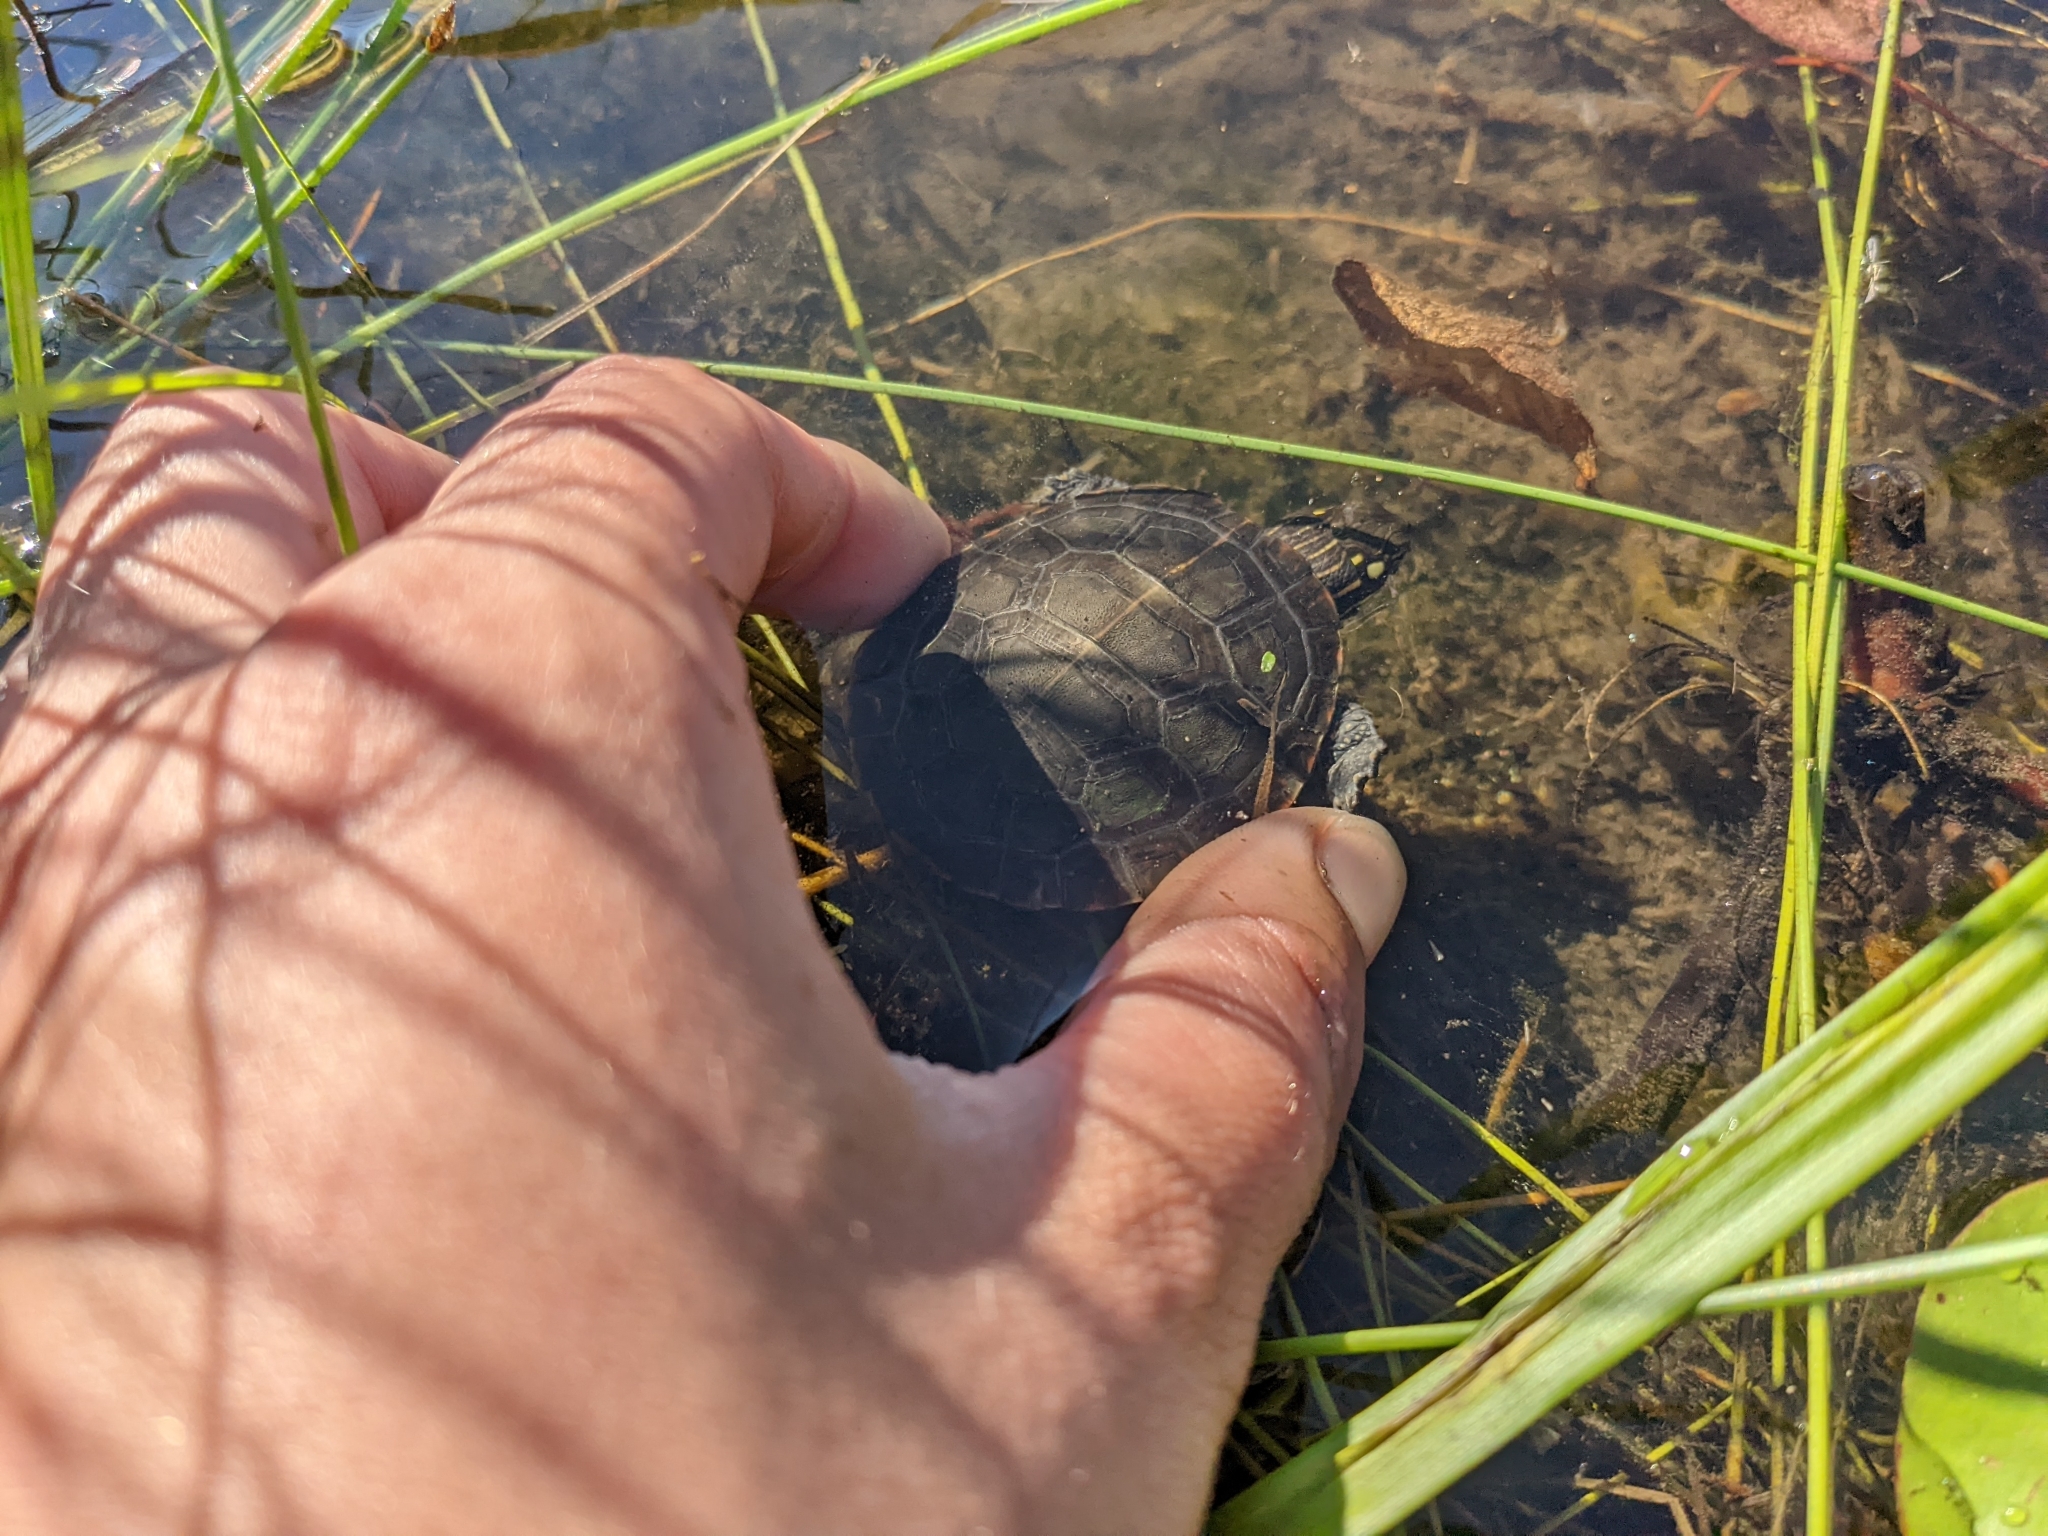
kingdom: Animalia
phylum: Chordata
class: Testudines
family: Emydidae
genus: Chrysemys
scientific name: Chrysemys picta
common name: Painted turtle
